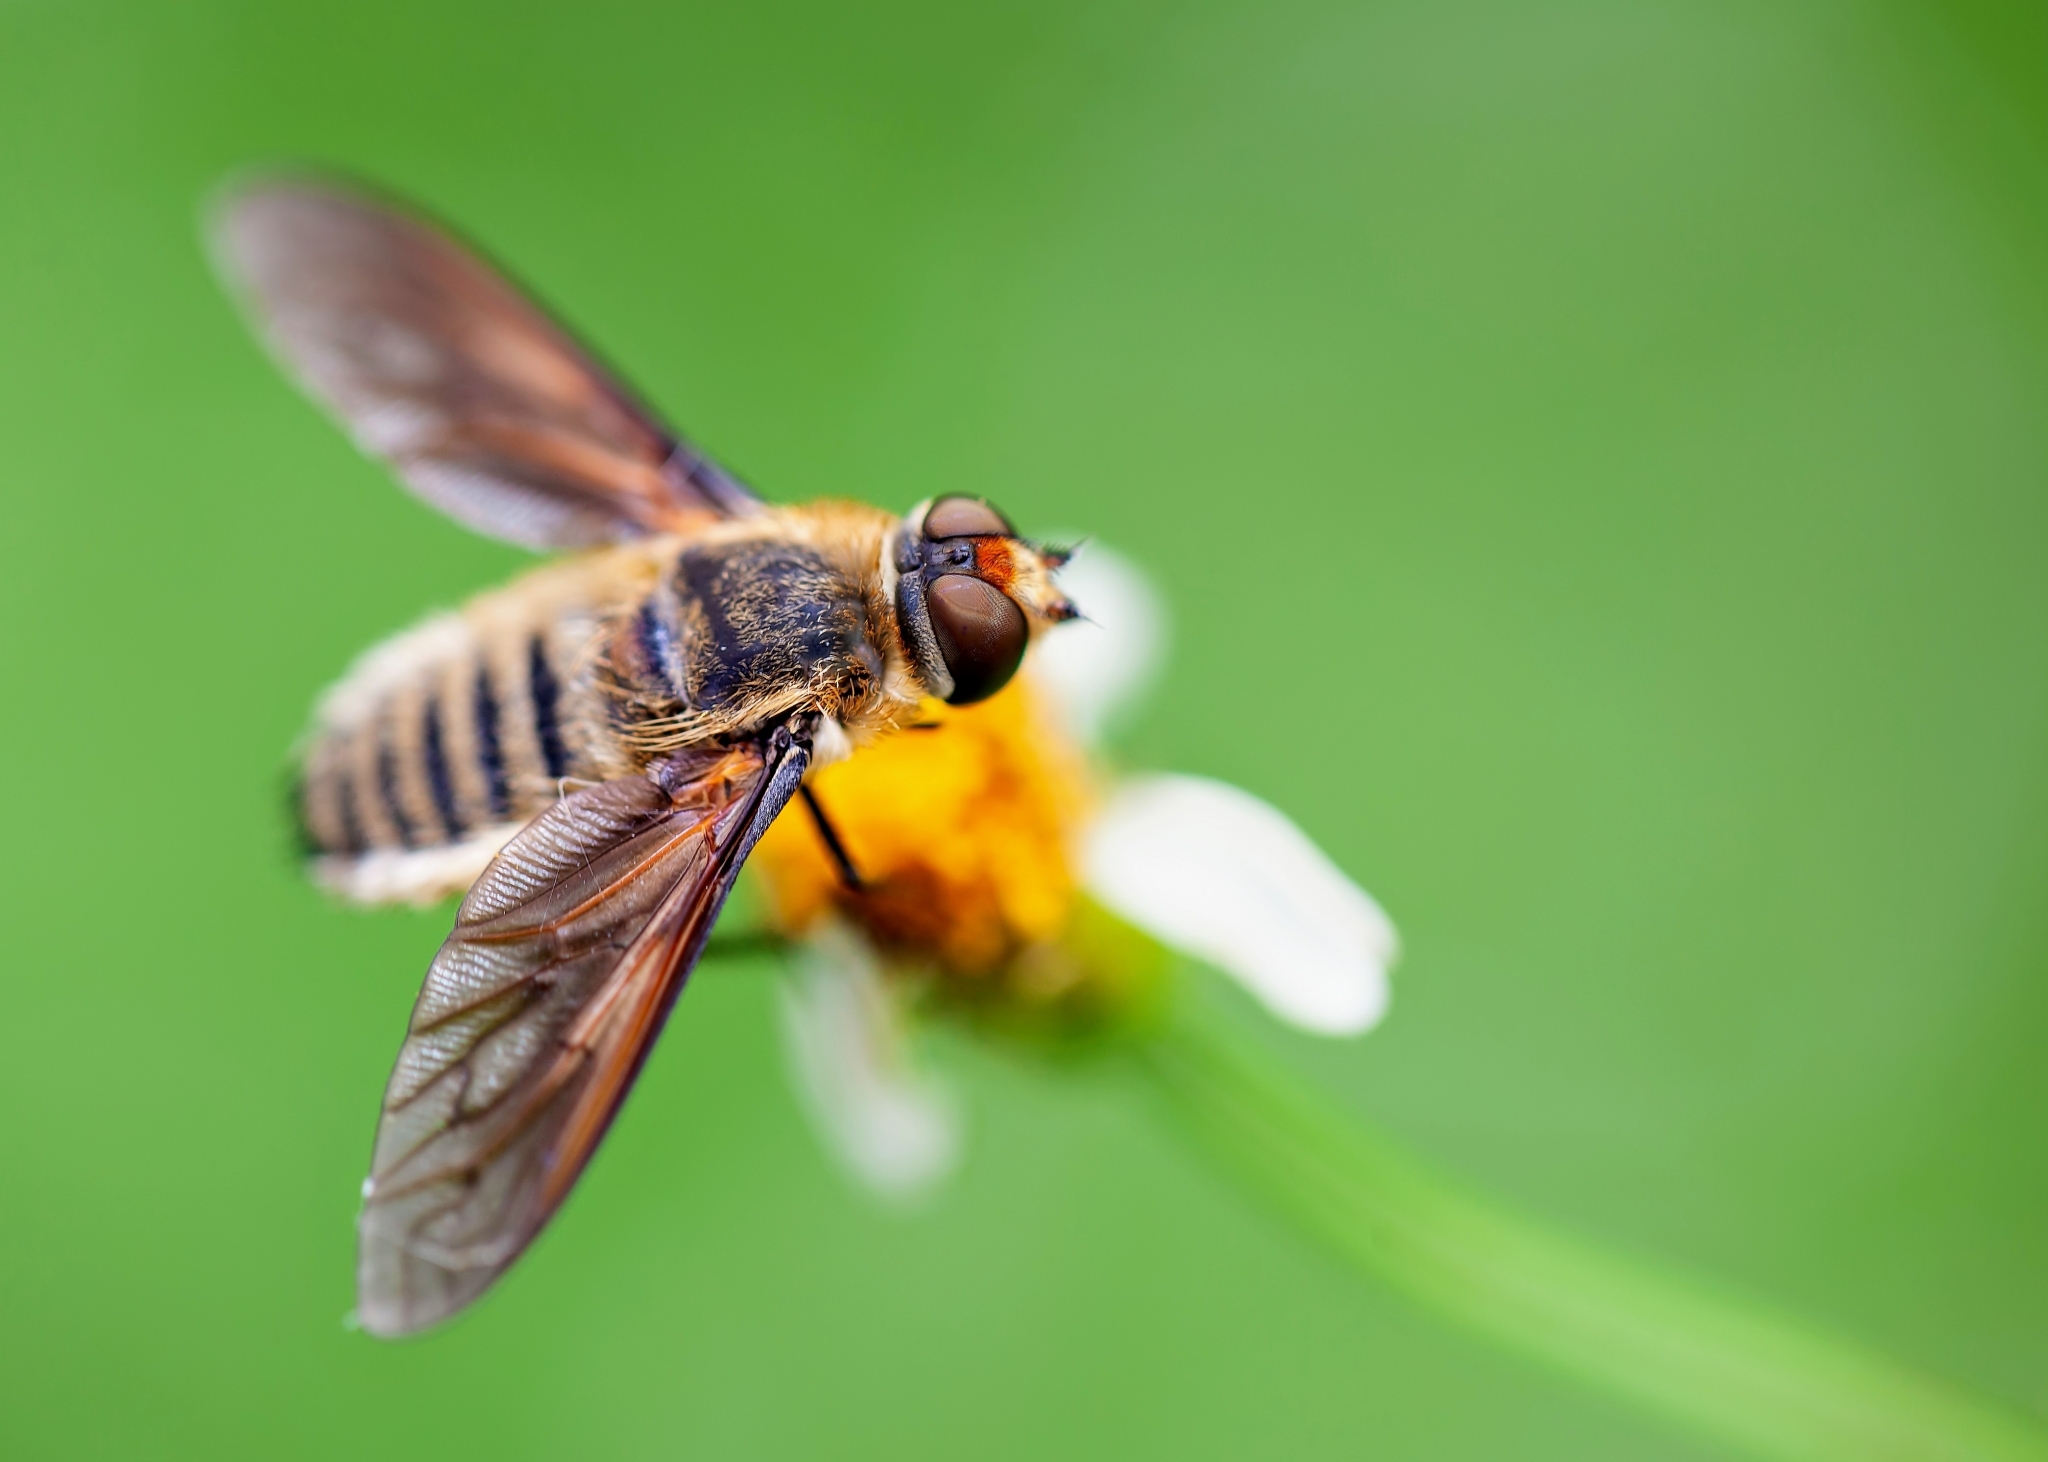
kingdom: Animalia
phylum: Arthropoda
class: Insecta
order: Diptera
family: Bombyliidae
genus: Poecilanthrax
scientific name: Poecilanthrax lucifer
